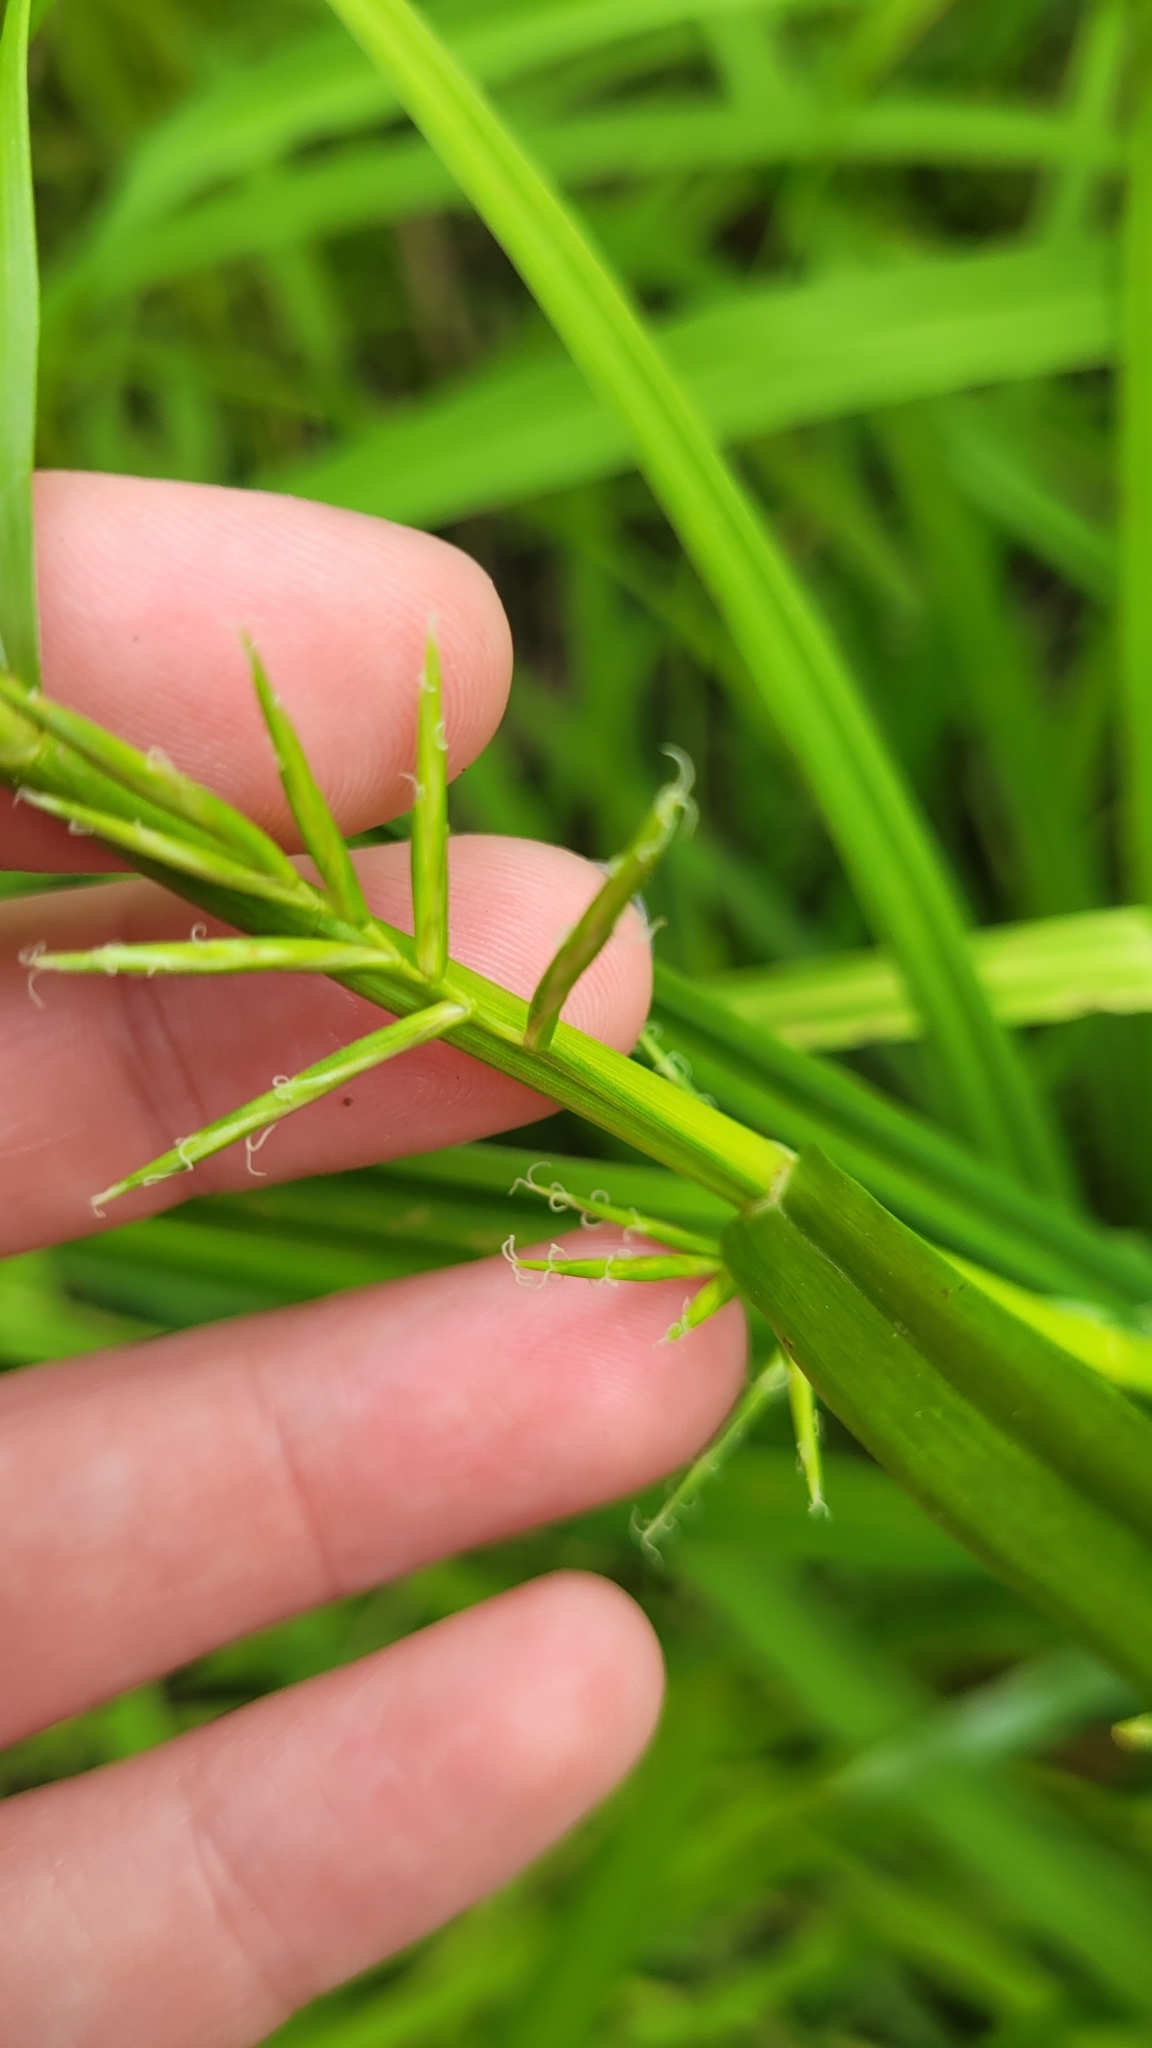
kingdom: Plantae
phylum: Tracheophyta
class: Liliopsida
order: Poales
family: Cyperaceae
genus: Dulichium
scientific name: Dulichium arundinaceum
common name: Three-way sedge
